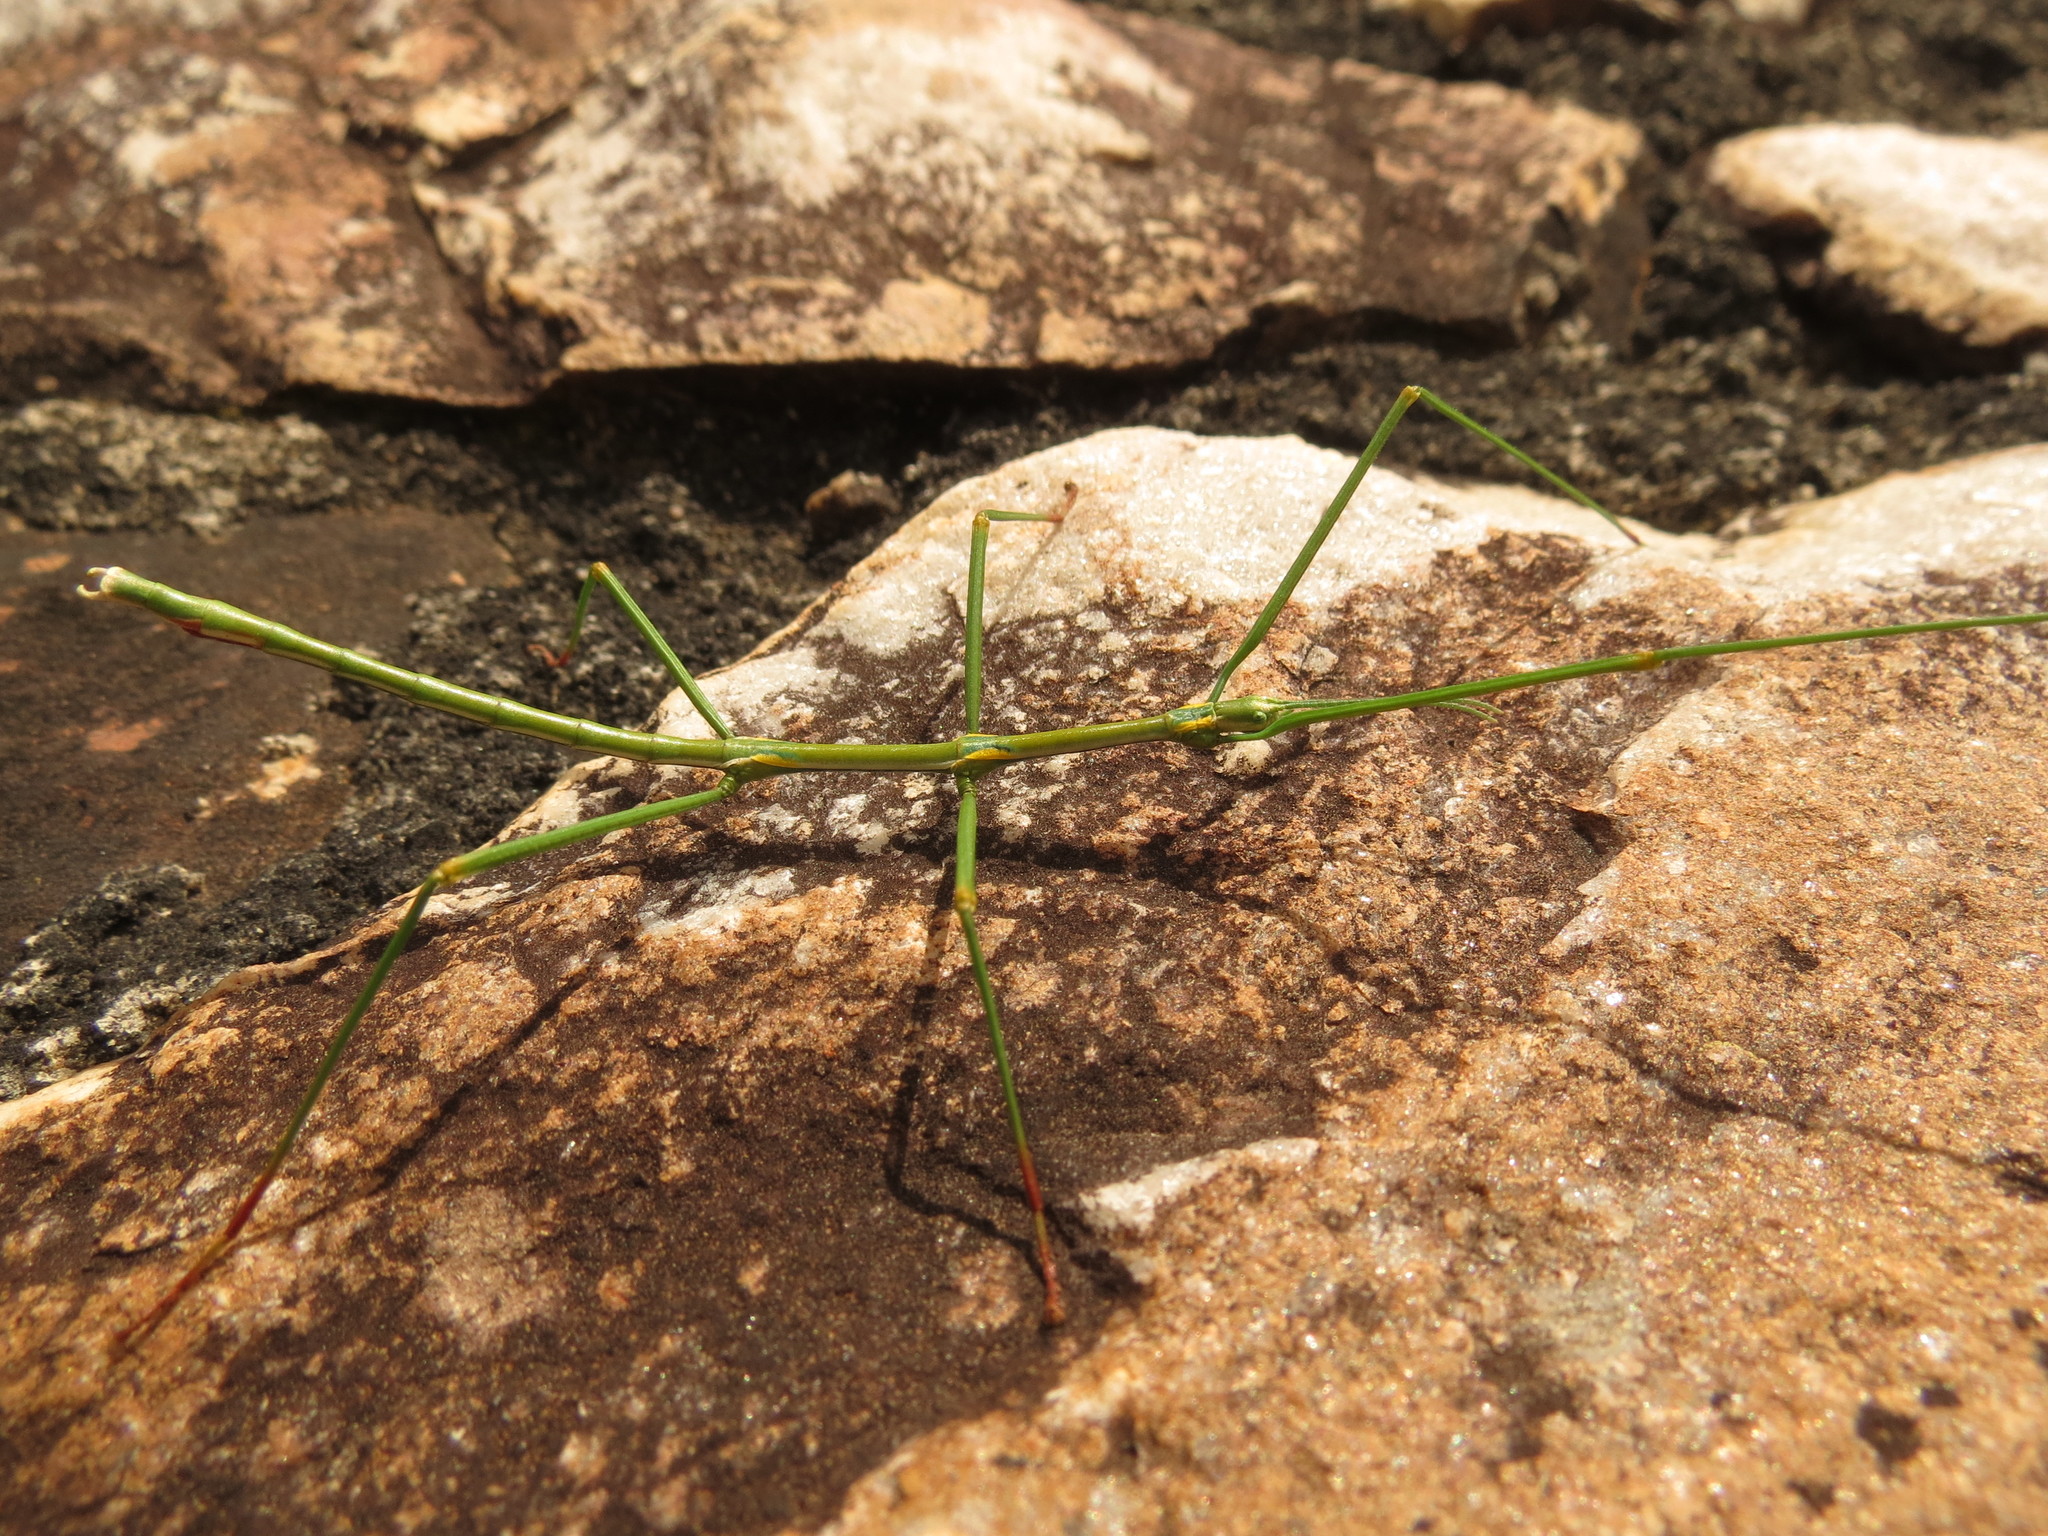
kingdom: Animalia
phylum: Arthropoda
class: Insecta
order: Phasmida
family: Bacillidae
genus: Phalces
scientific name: Phalces brevis
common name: Cape stick insect
